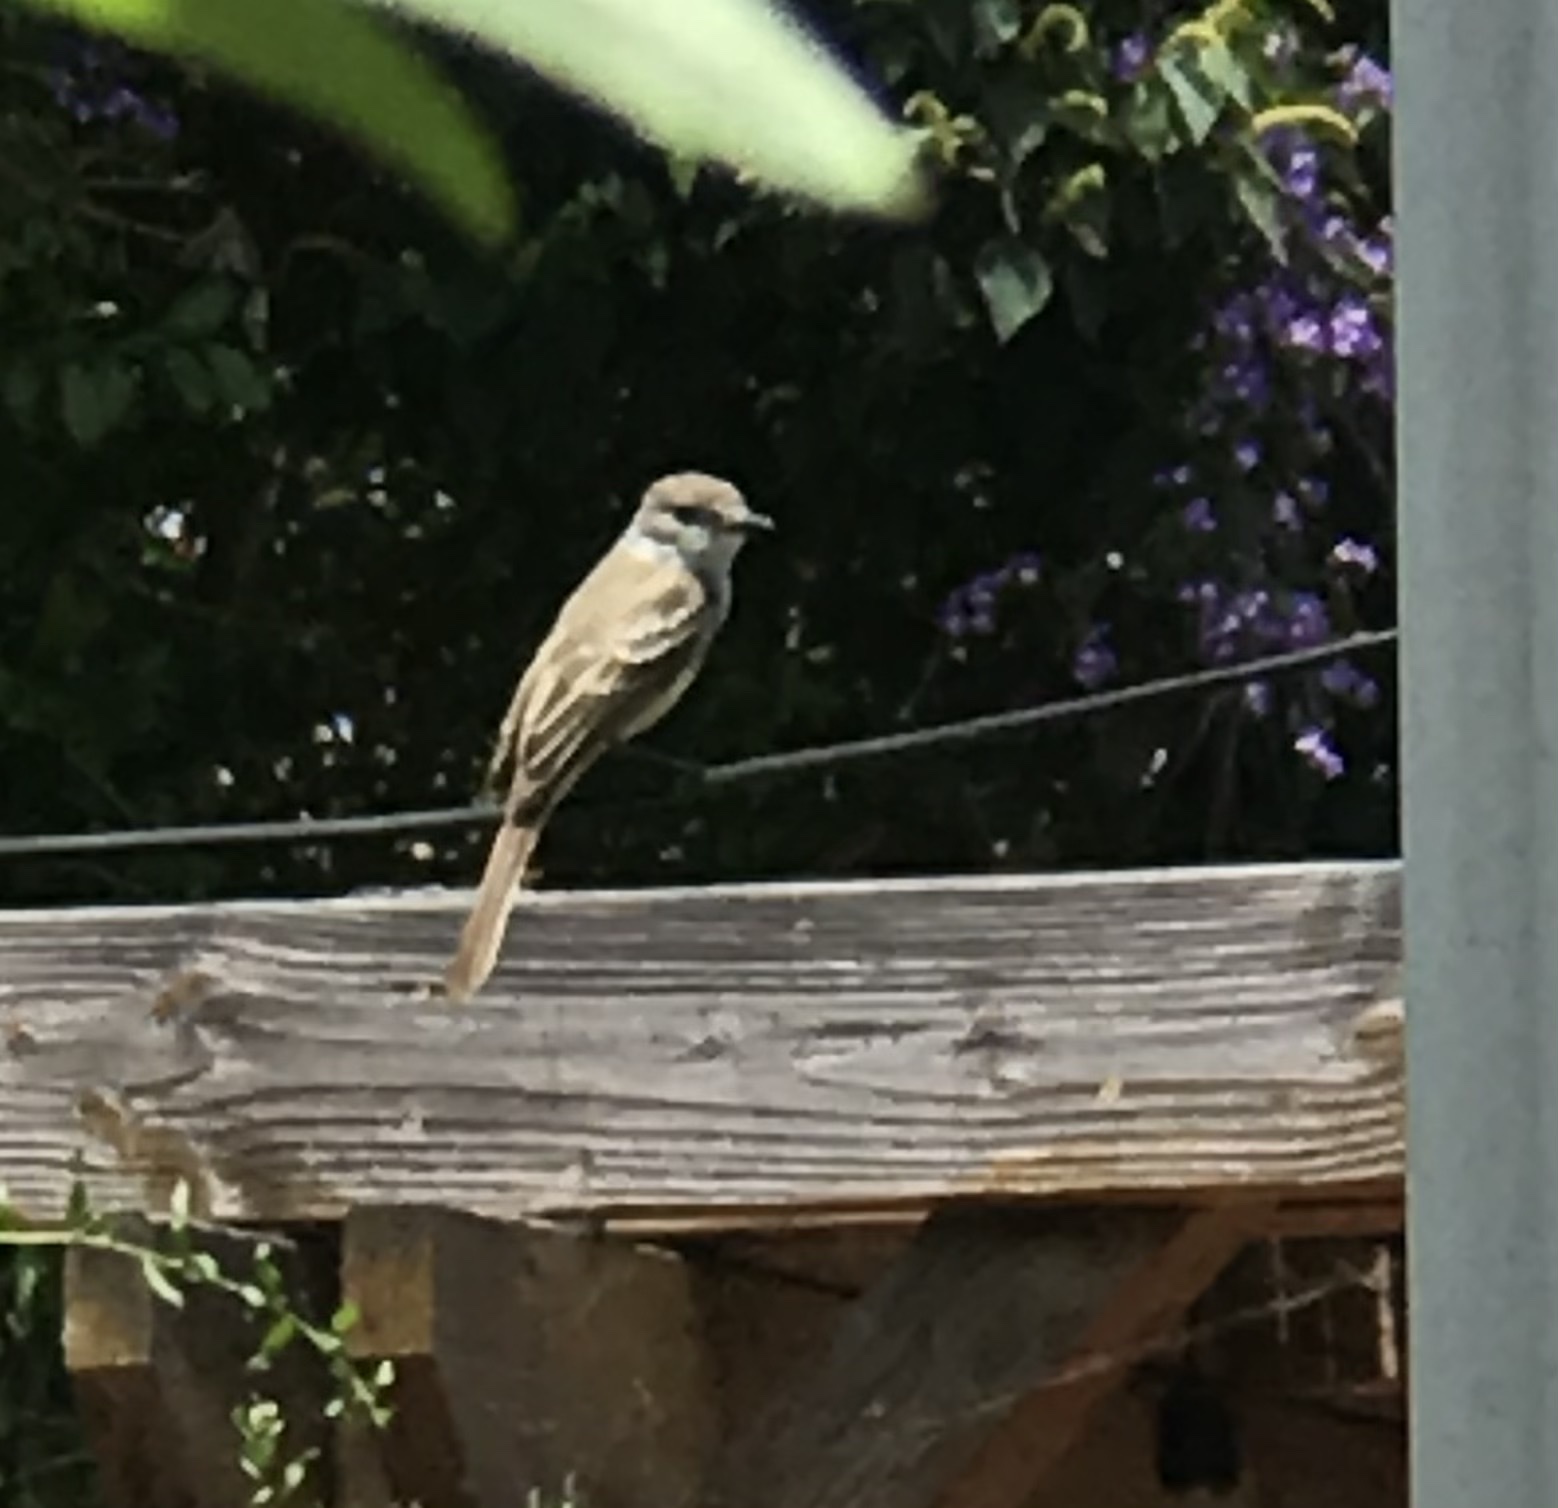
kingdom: Animalia
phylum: Chordata
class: Aves
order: Passeriformes
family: Tyrannidae
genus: Myiarchus
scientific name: Myiarchus cinerascens
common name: Ash-throated flycatcher
